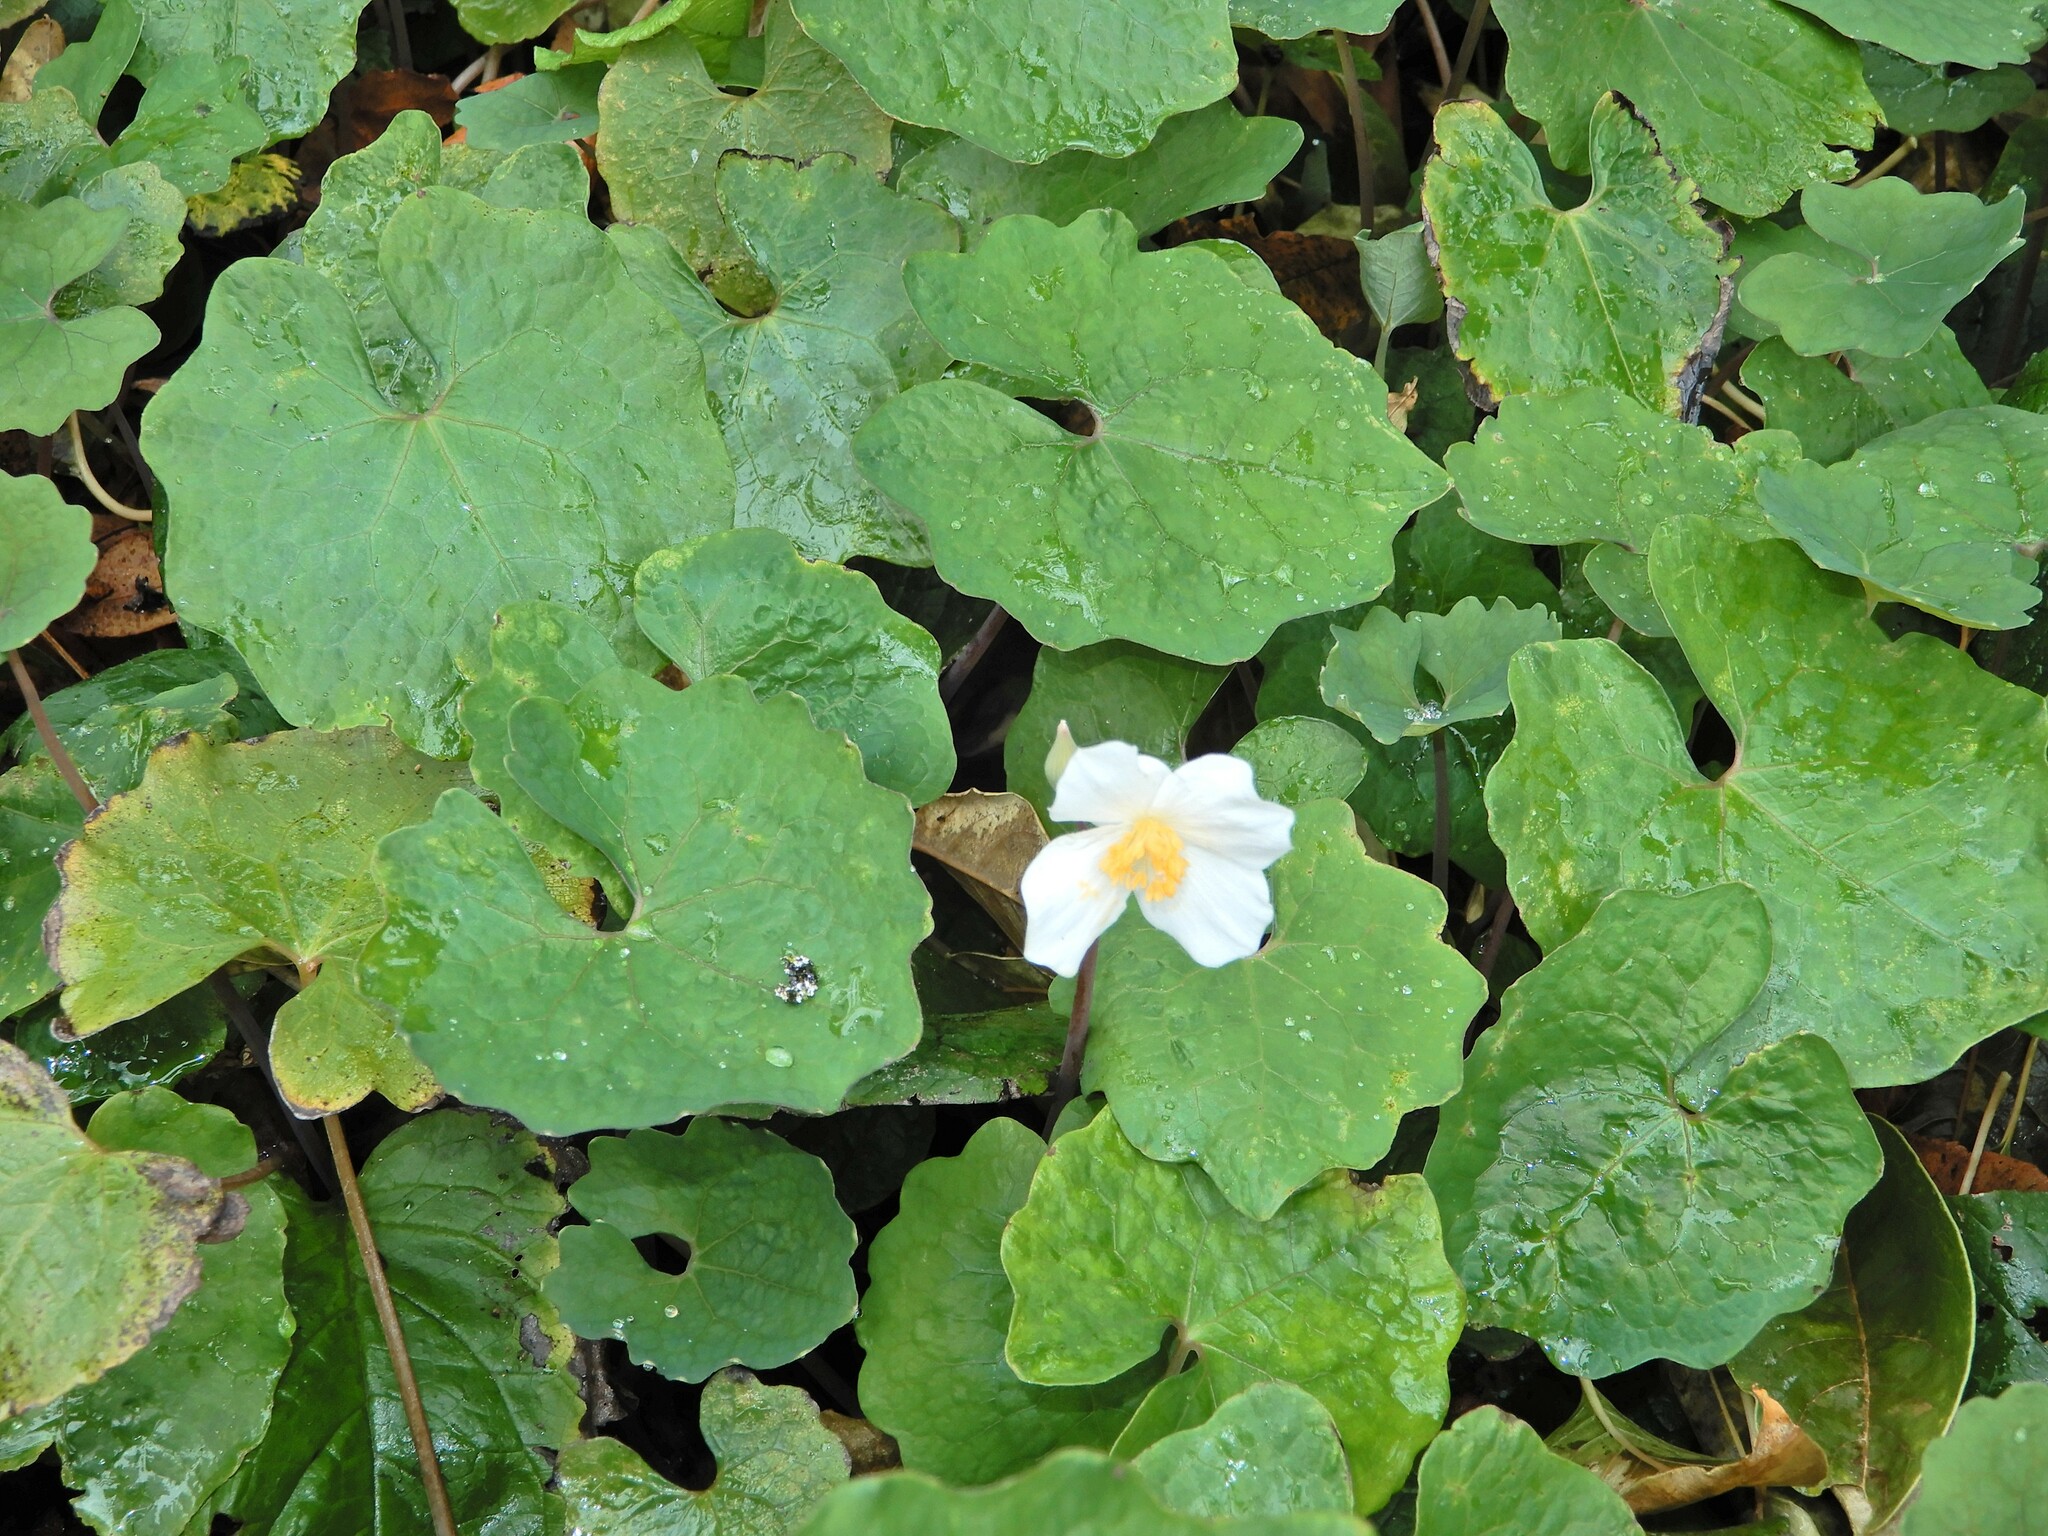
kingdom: Plantae
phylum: Tracheophyta
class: Magnoliopsida
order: Ranunculales
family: Papaveraceae
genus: Eomecon
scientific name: Eomecon chionantha
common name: Dawn-poppy
